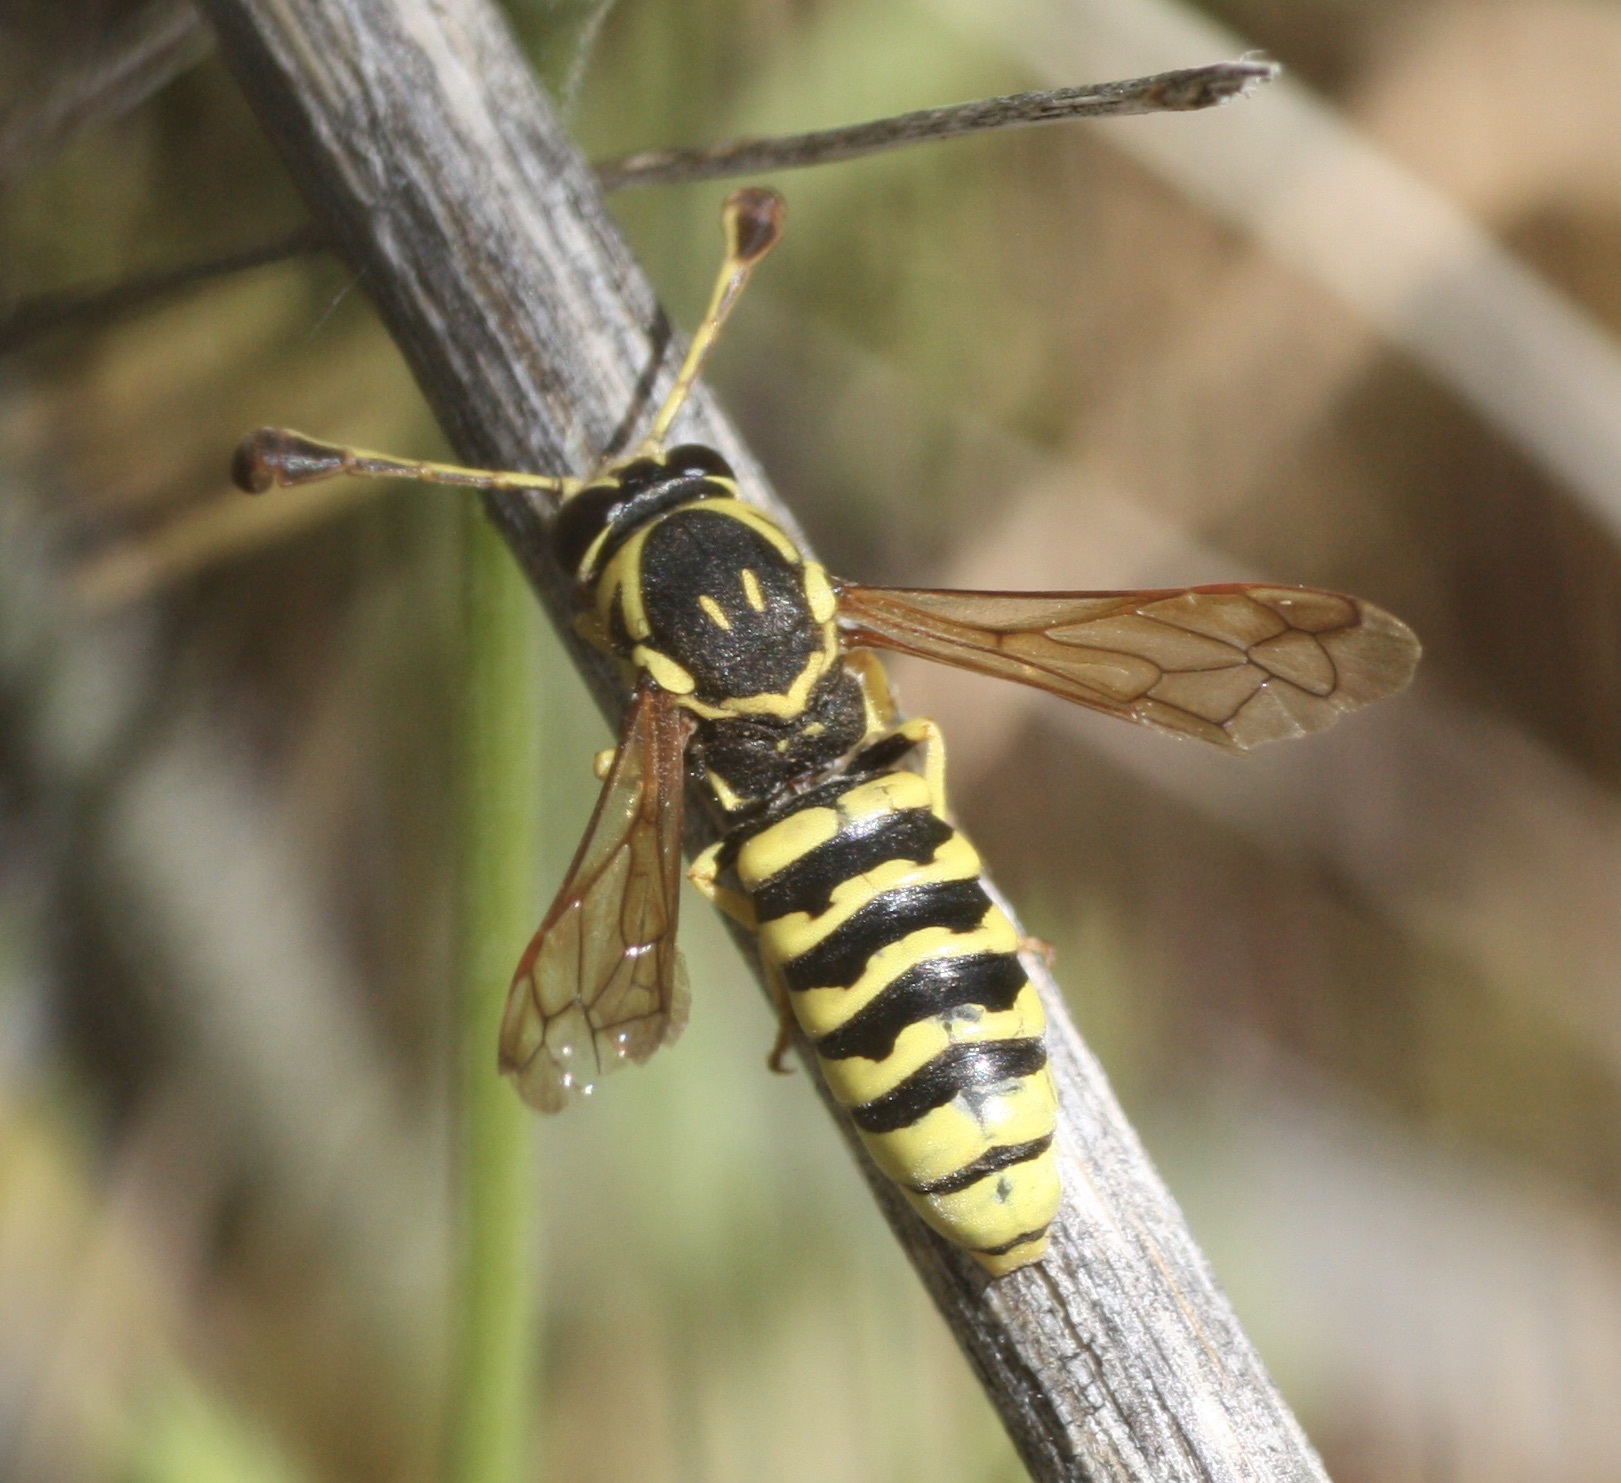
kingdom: Animalia
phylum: Arthropoda
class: Insecta
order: Hymenoptera
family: Masaridae
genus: Pseudomasaris
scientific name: Pseudomasaris edwardsi
